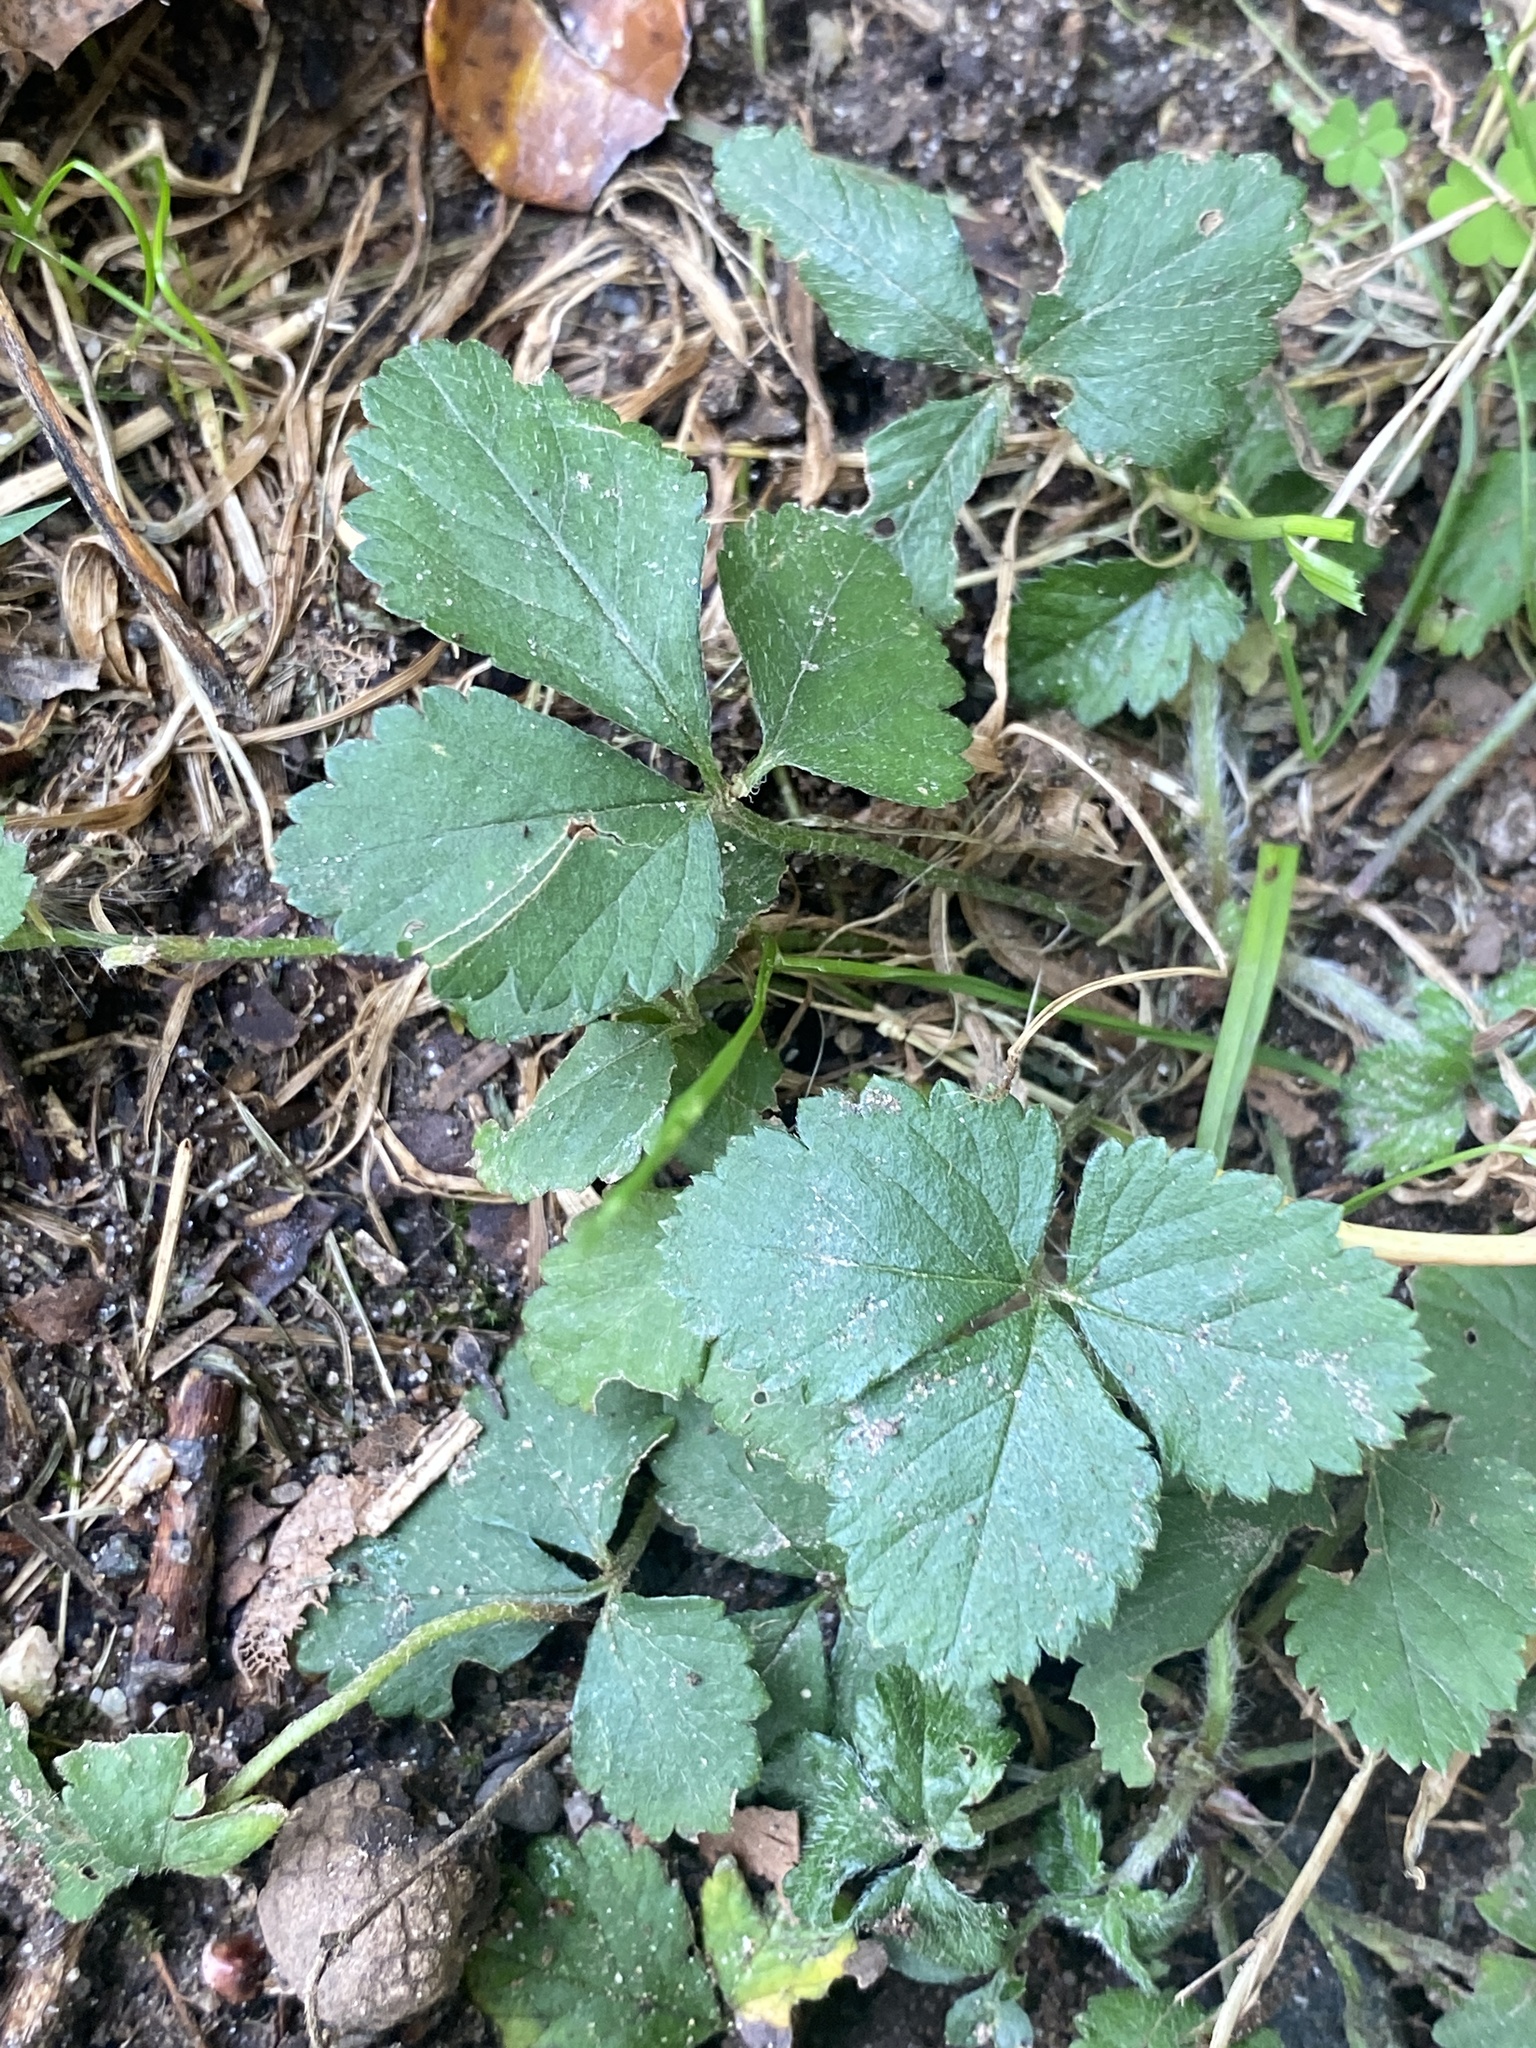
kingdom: Plantae
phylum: Tracheophyta
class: Magnoliopsida
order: Rosales
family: Rosaceae
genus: Potentilla
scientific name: Potentilla indica
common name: Yellow-flowered strawberry
